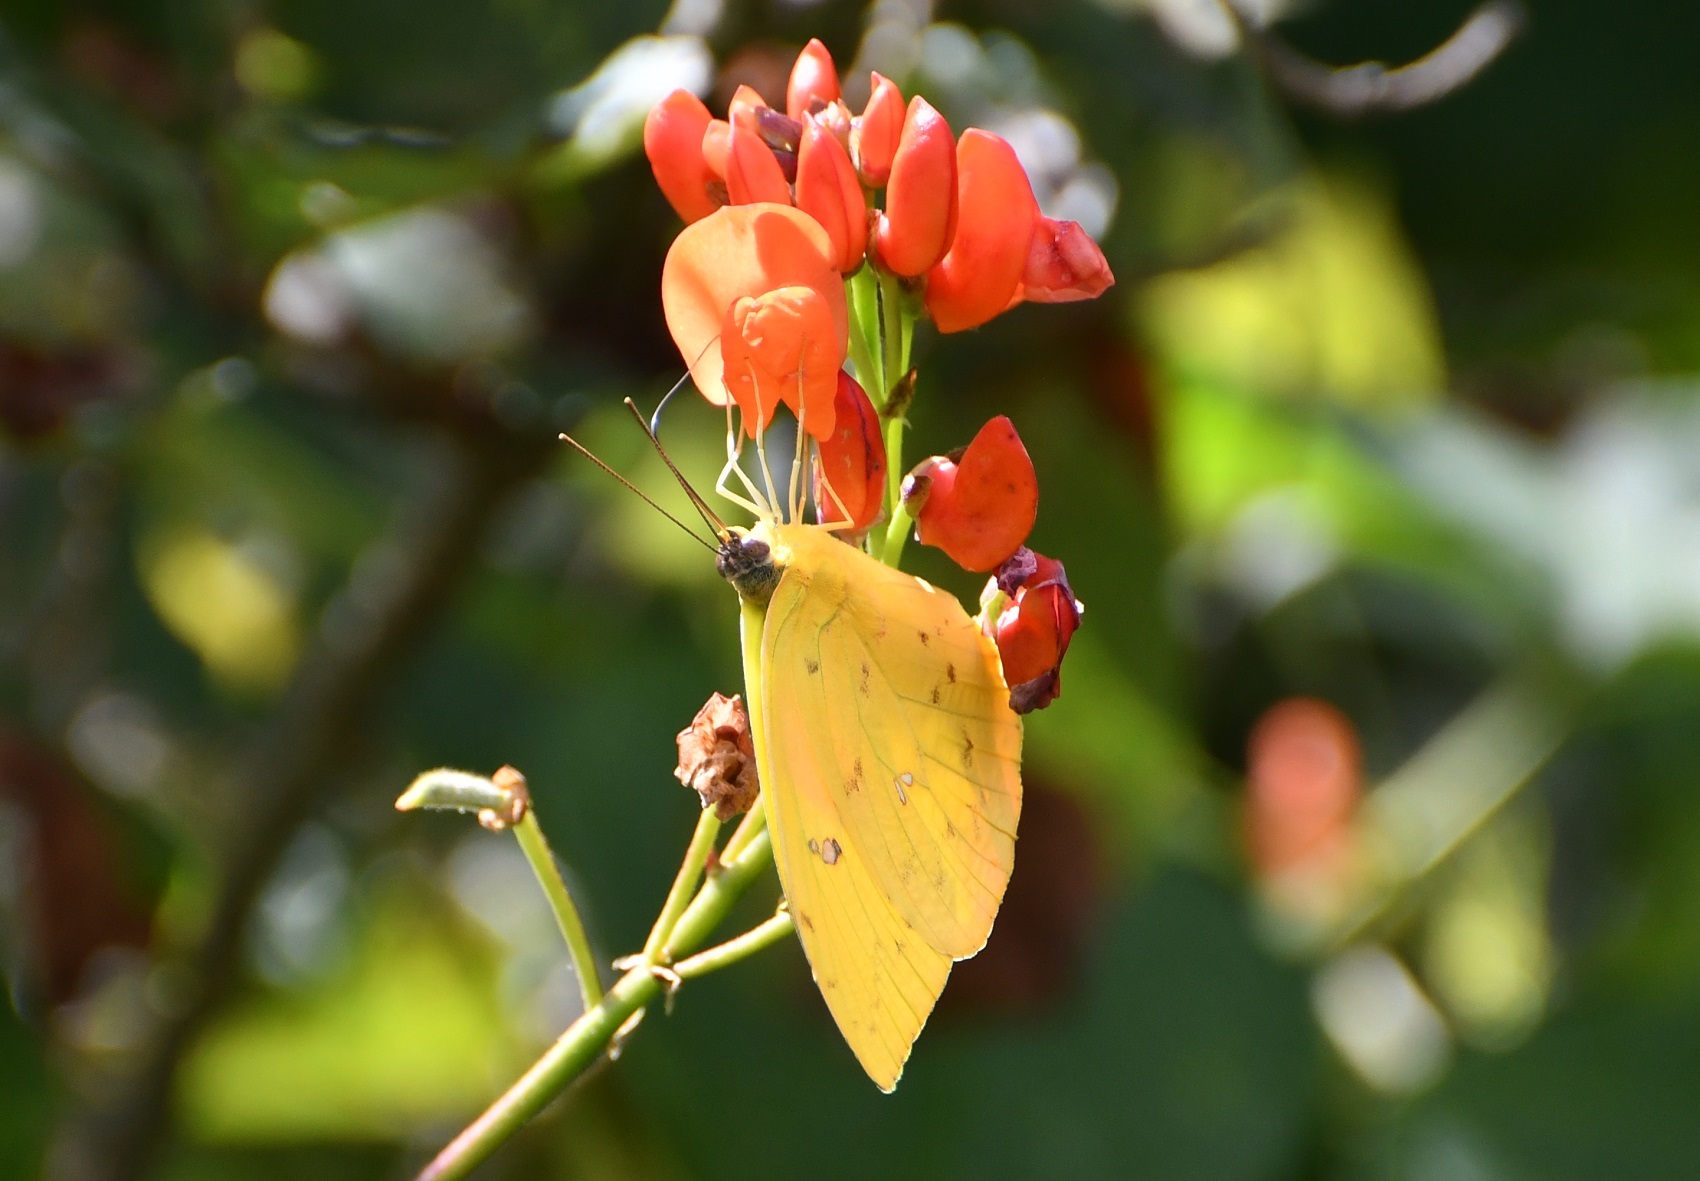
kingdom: Animalia
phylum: Arthropoda
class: Insecta
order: Lepidoptera
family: Pieridae
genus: Phoebis
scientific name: Phoebis philea
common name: Orange-barred giant sulphur
